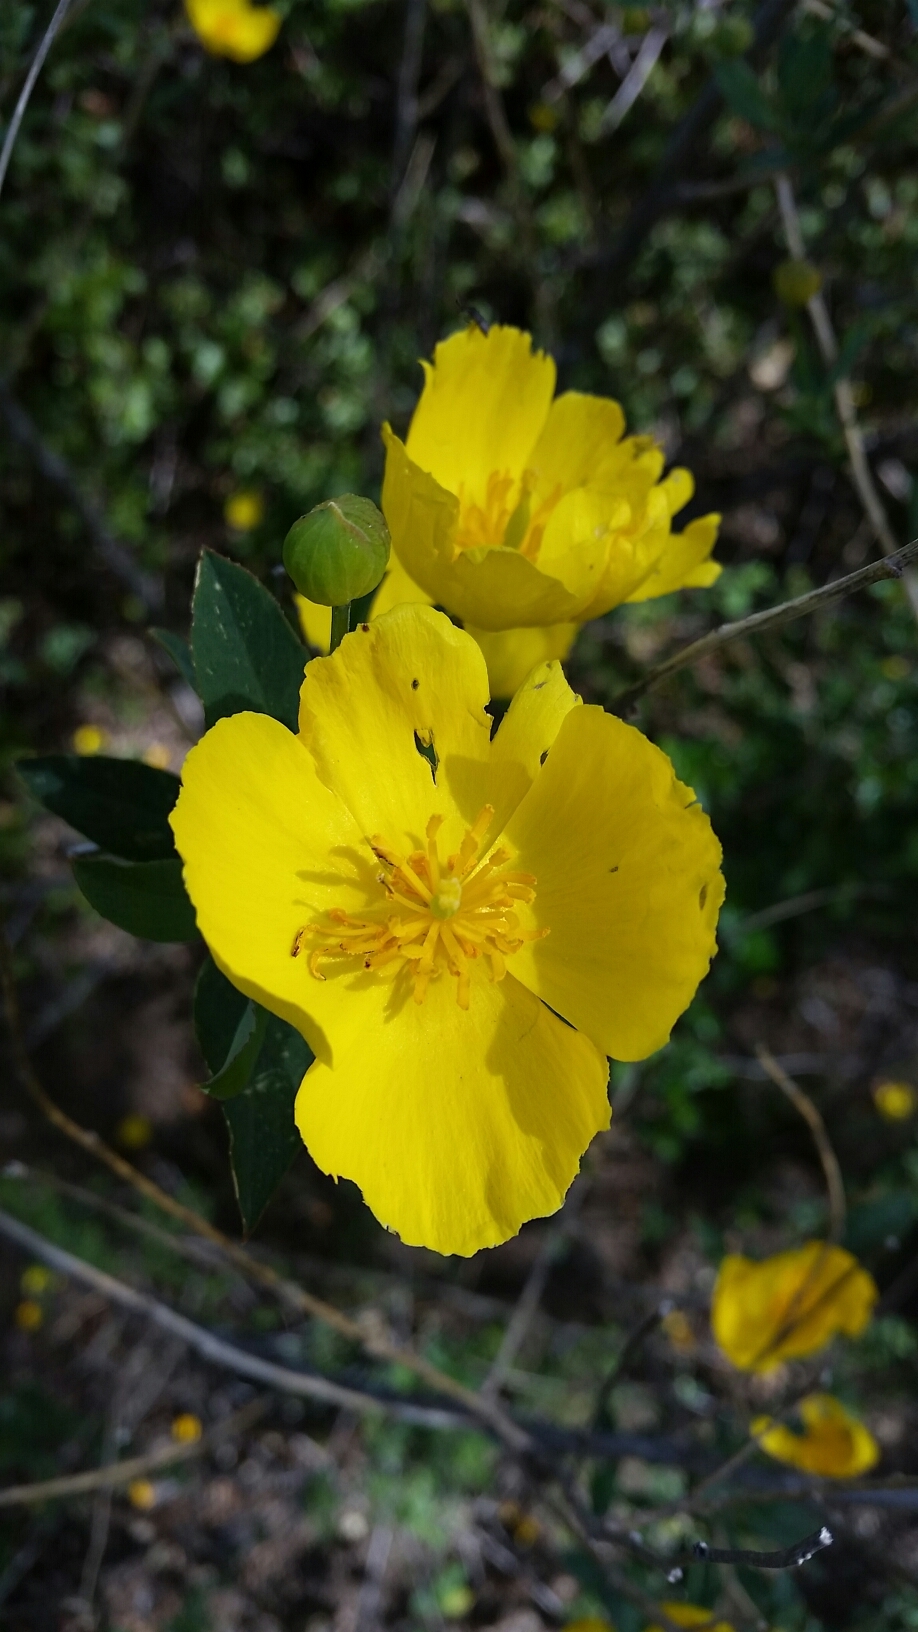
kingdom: Plantae
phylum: Tracheophyta
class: Magnoliopsida
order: Ranunculales
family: Papaveraceae
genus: Dendromecon
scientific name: Dendromecon rigida
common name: Tree poppy
